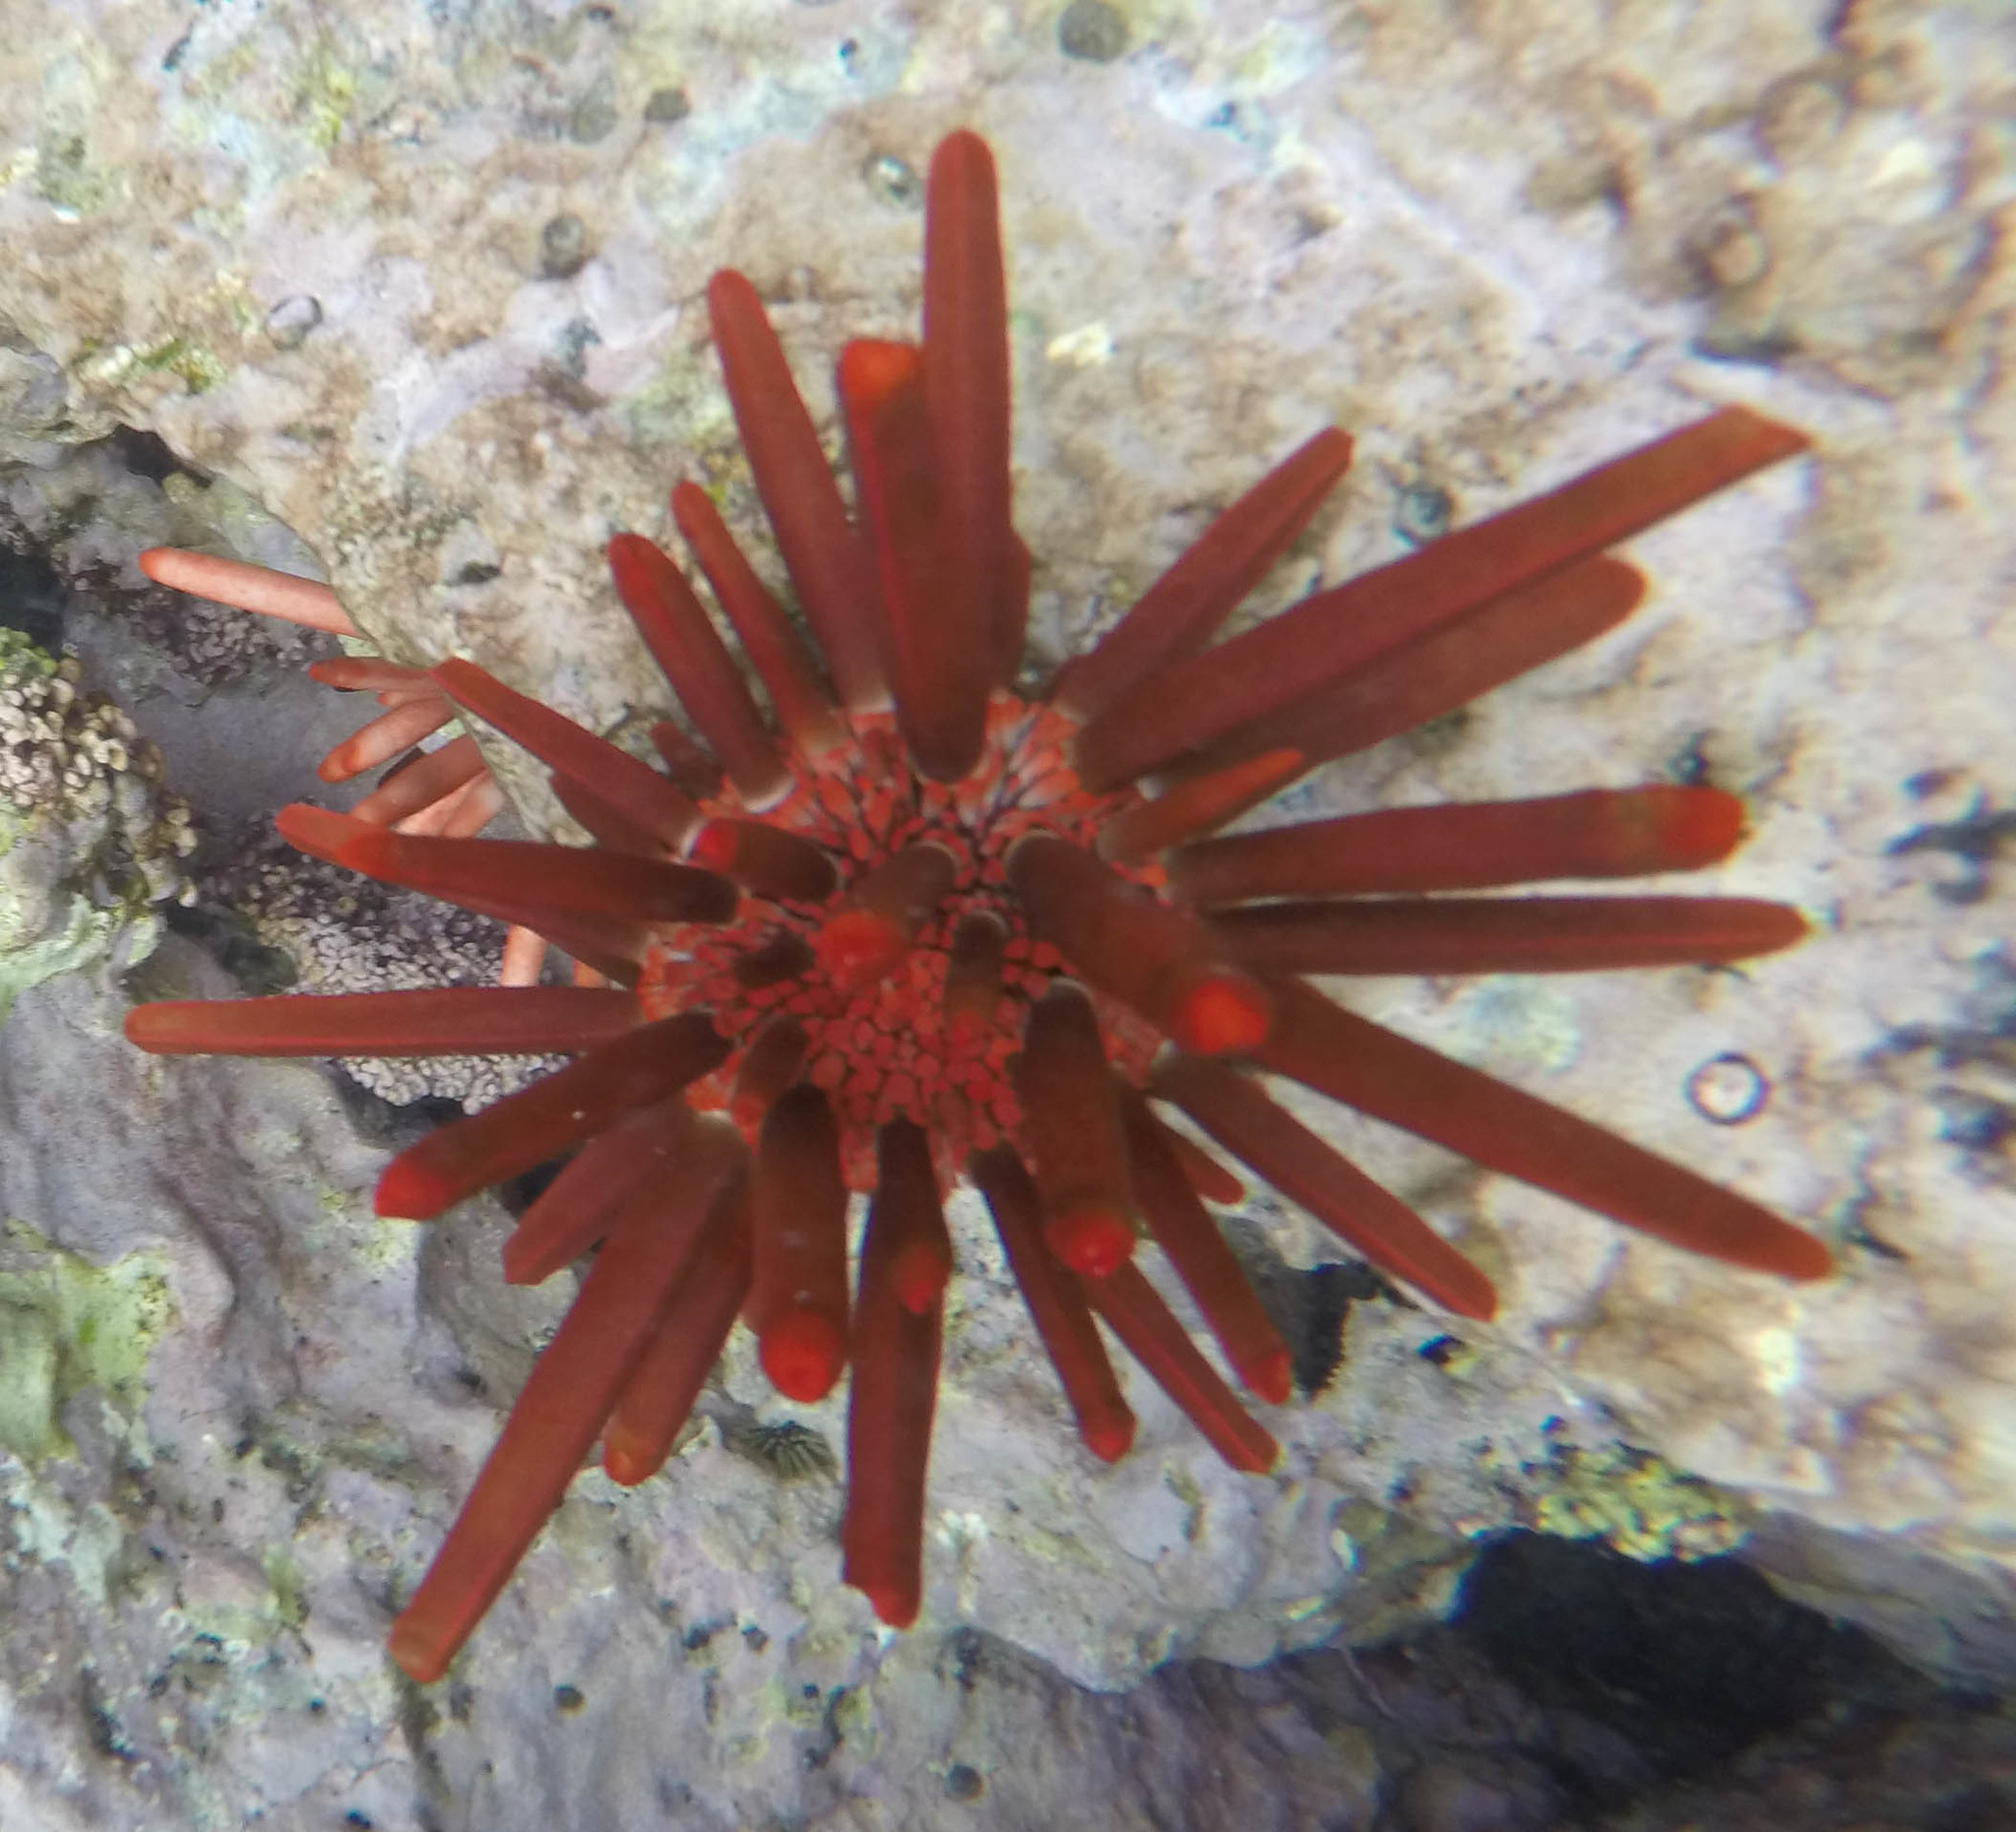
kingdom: Animalia
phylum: Echinodermata
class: Echinoidea
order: Camarodonta
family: Echinometridae
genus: Heterocentrotus
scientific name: Heterocentrotus mamillatus
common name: Slate pencil urchin
